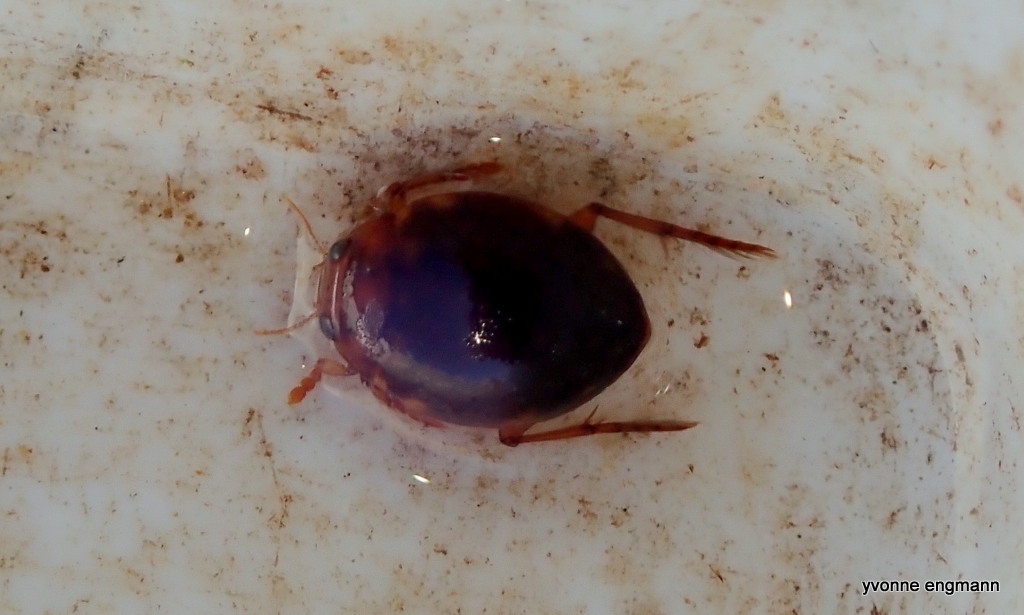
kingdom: Animalia
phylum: Arthropoda
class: Insecta
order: Coleoptera
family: Dytiscidae
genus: Hyphydrus
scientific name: Hyphydrus ovatus
